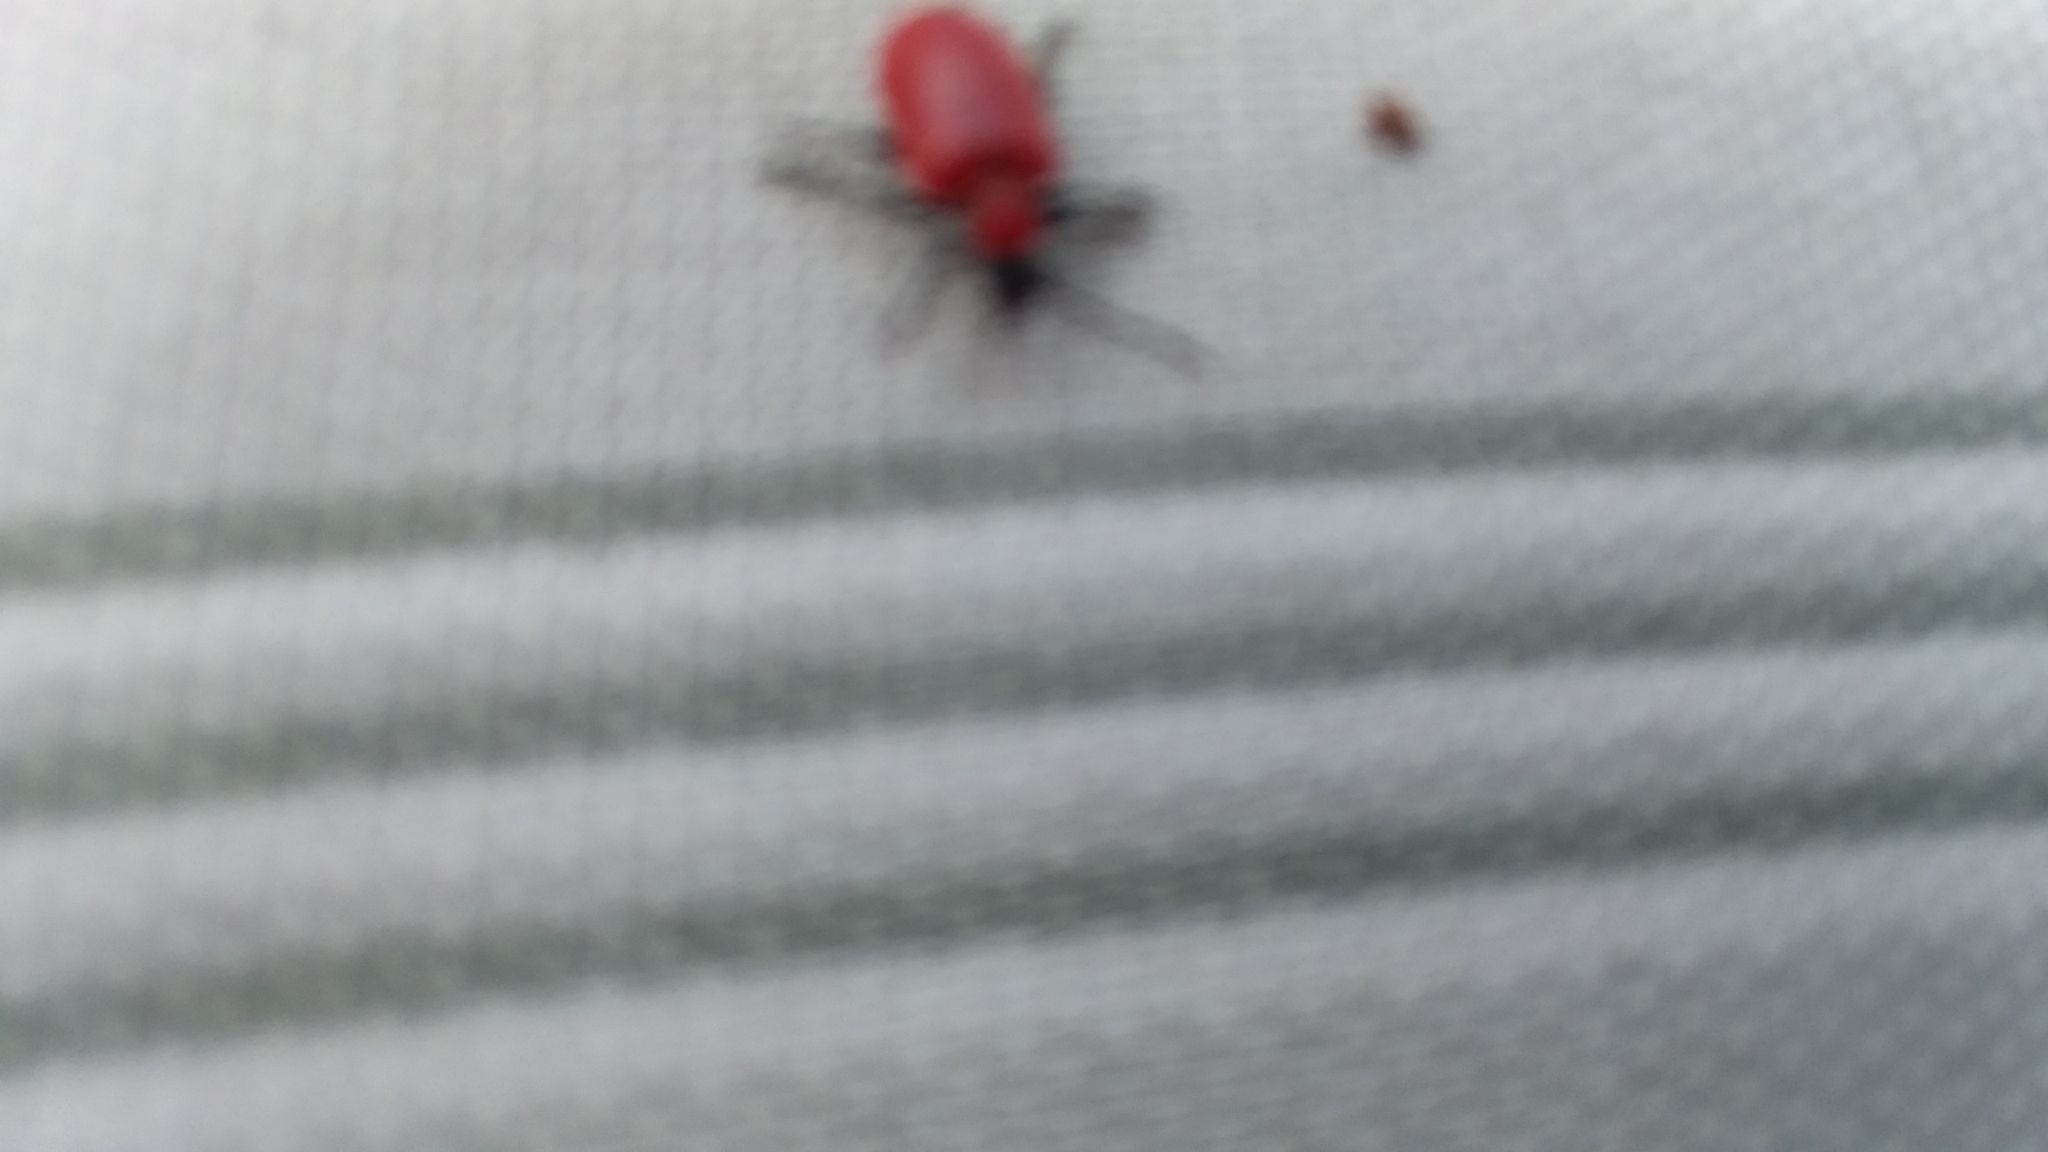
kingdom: Animalia
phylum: Arthropoda
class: Insecta
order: Coleoptera
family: Chrysomelidae
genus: Lilioceris
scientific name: Lilioceris lilii
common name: Lily beetle
